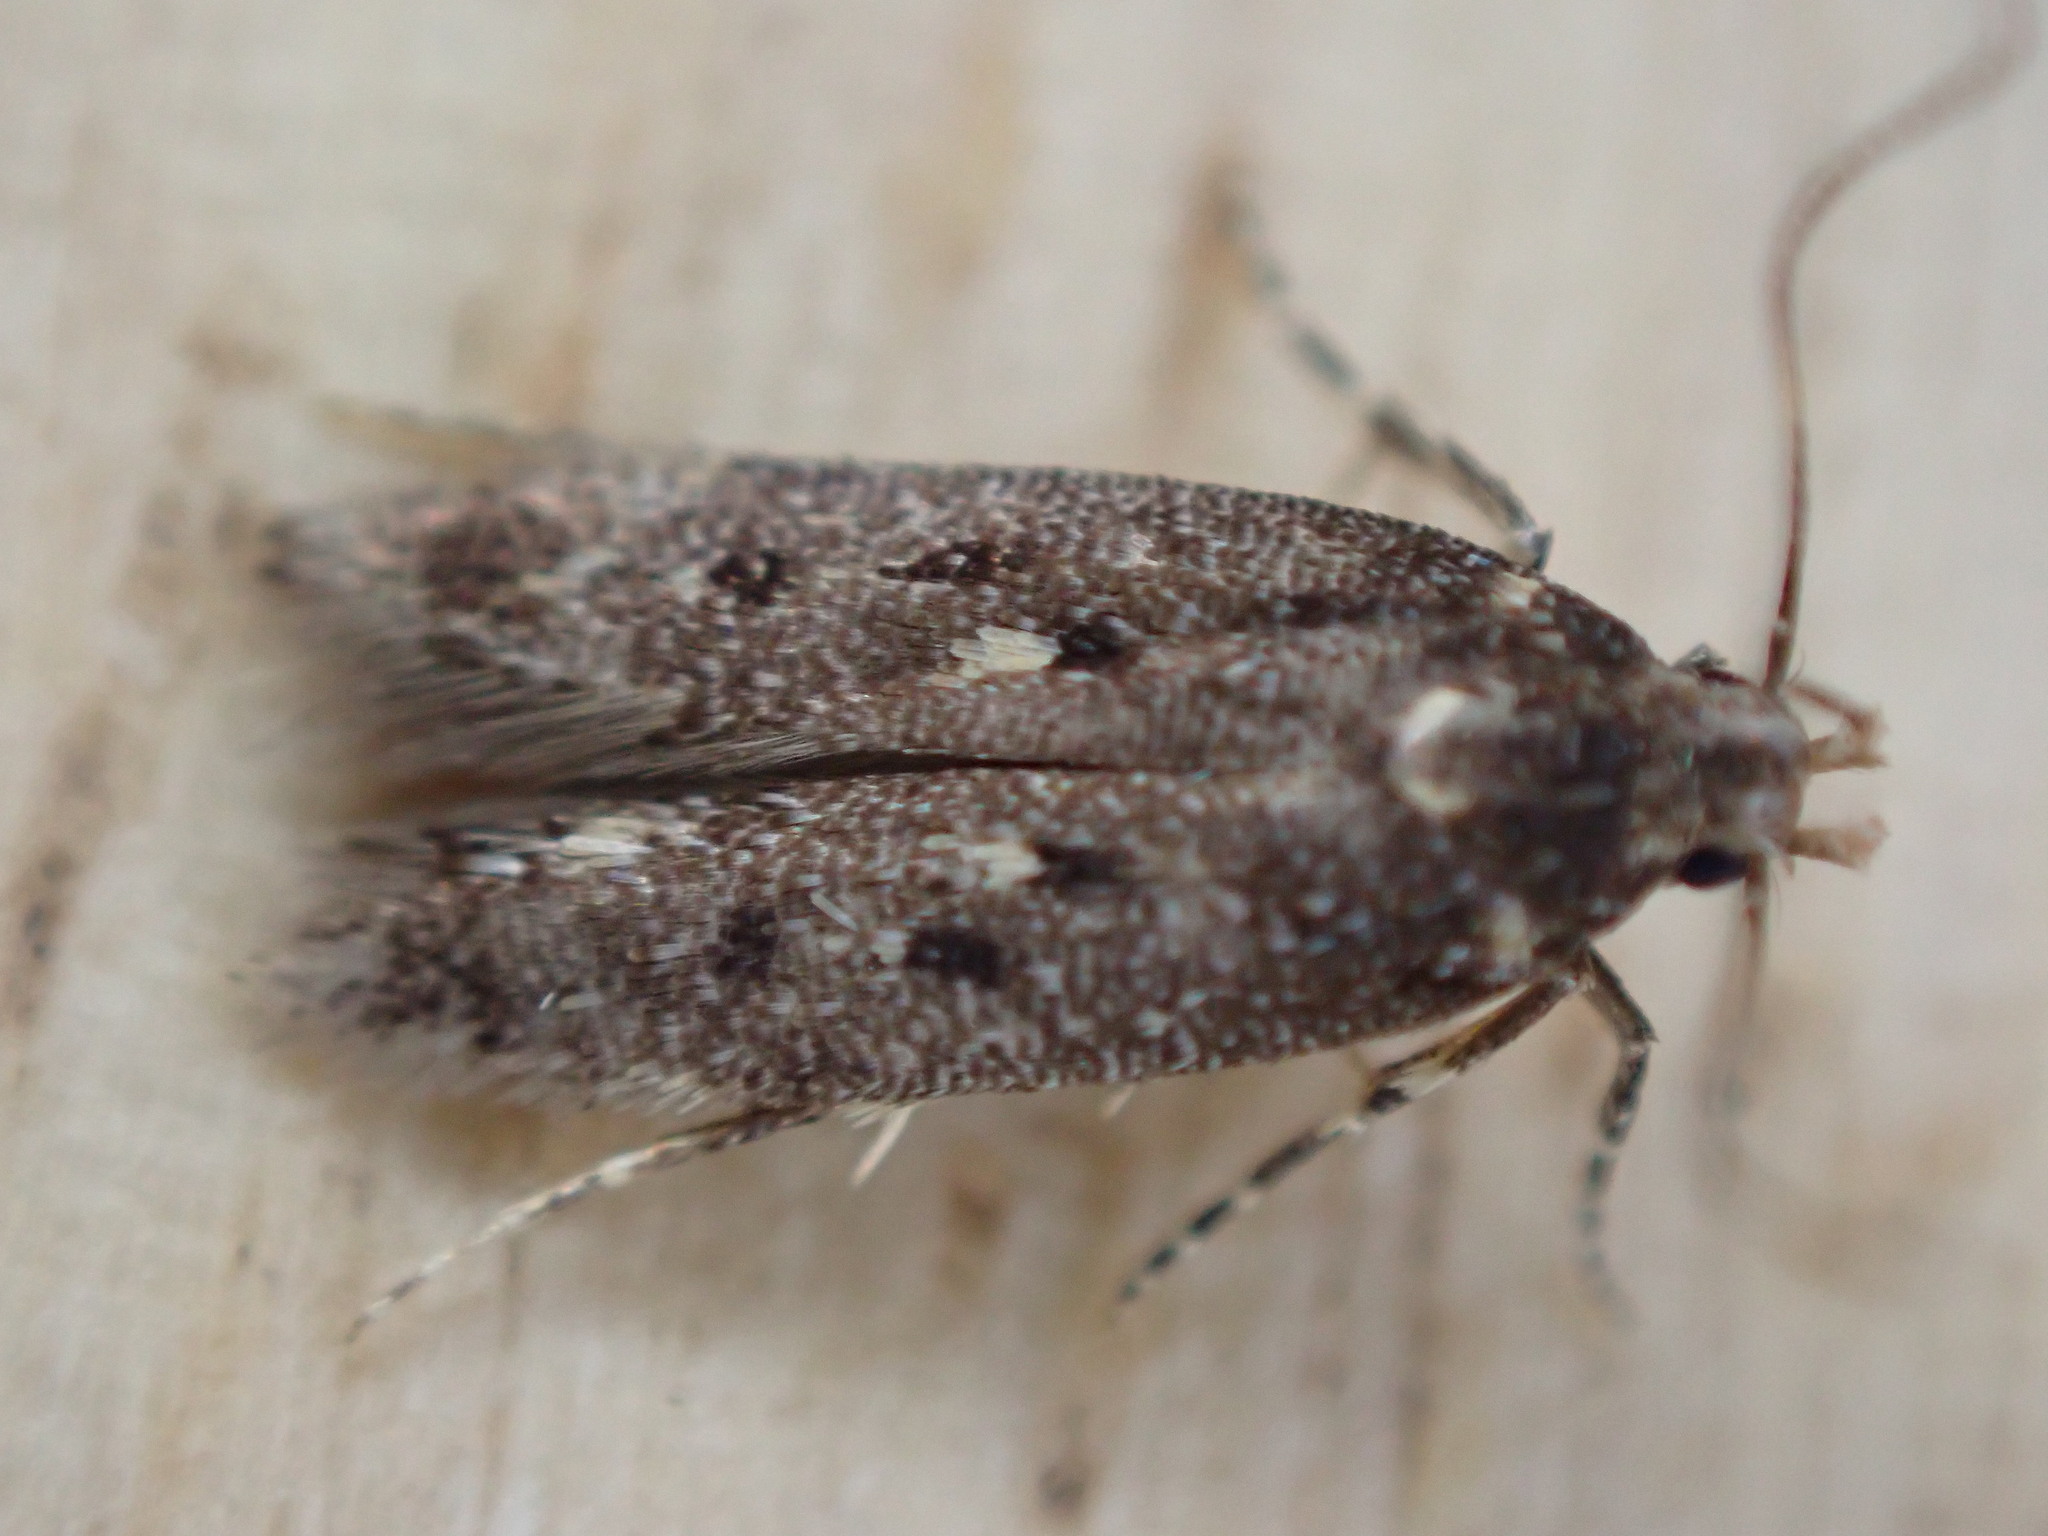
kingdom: Animalia
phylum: Arthropoda
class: Insecta
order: Lepidoptera
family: Gelechiidae
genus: Bryotropha
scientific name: Bryotropha affinis
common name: Dark groundling
